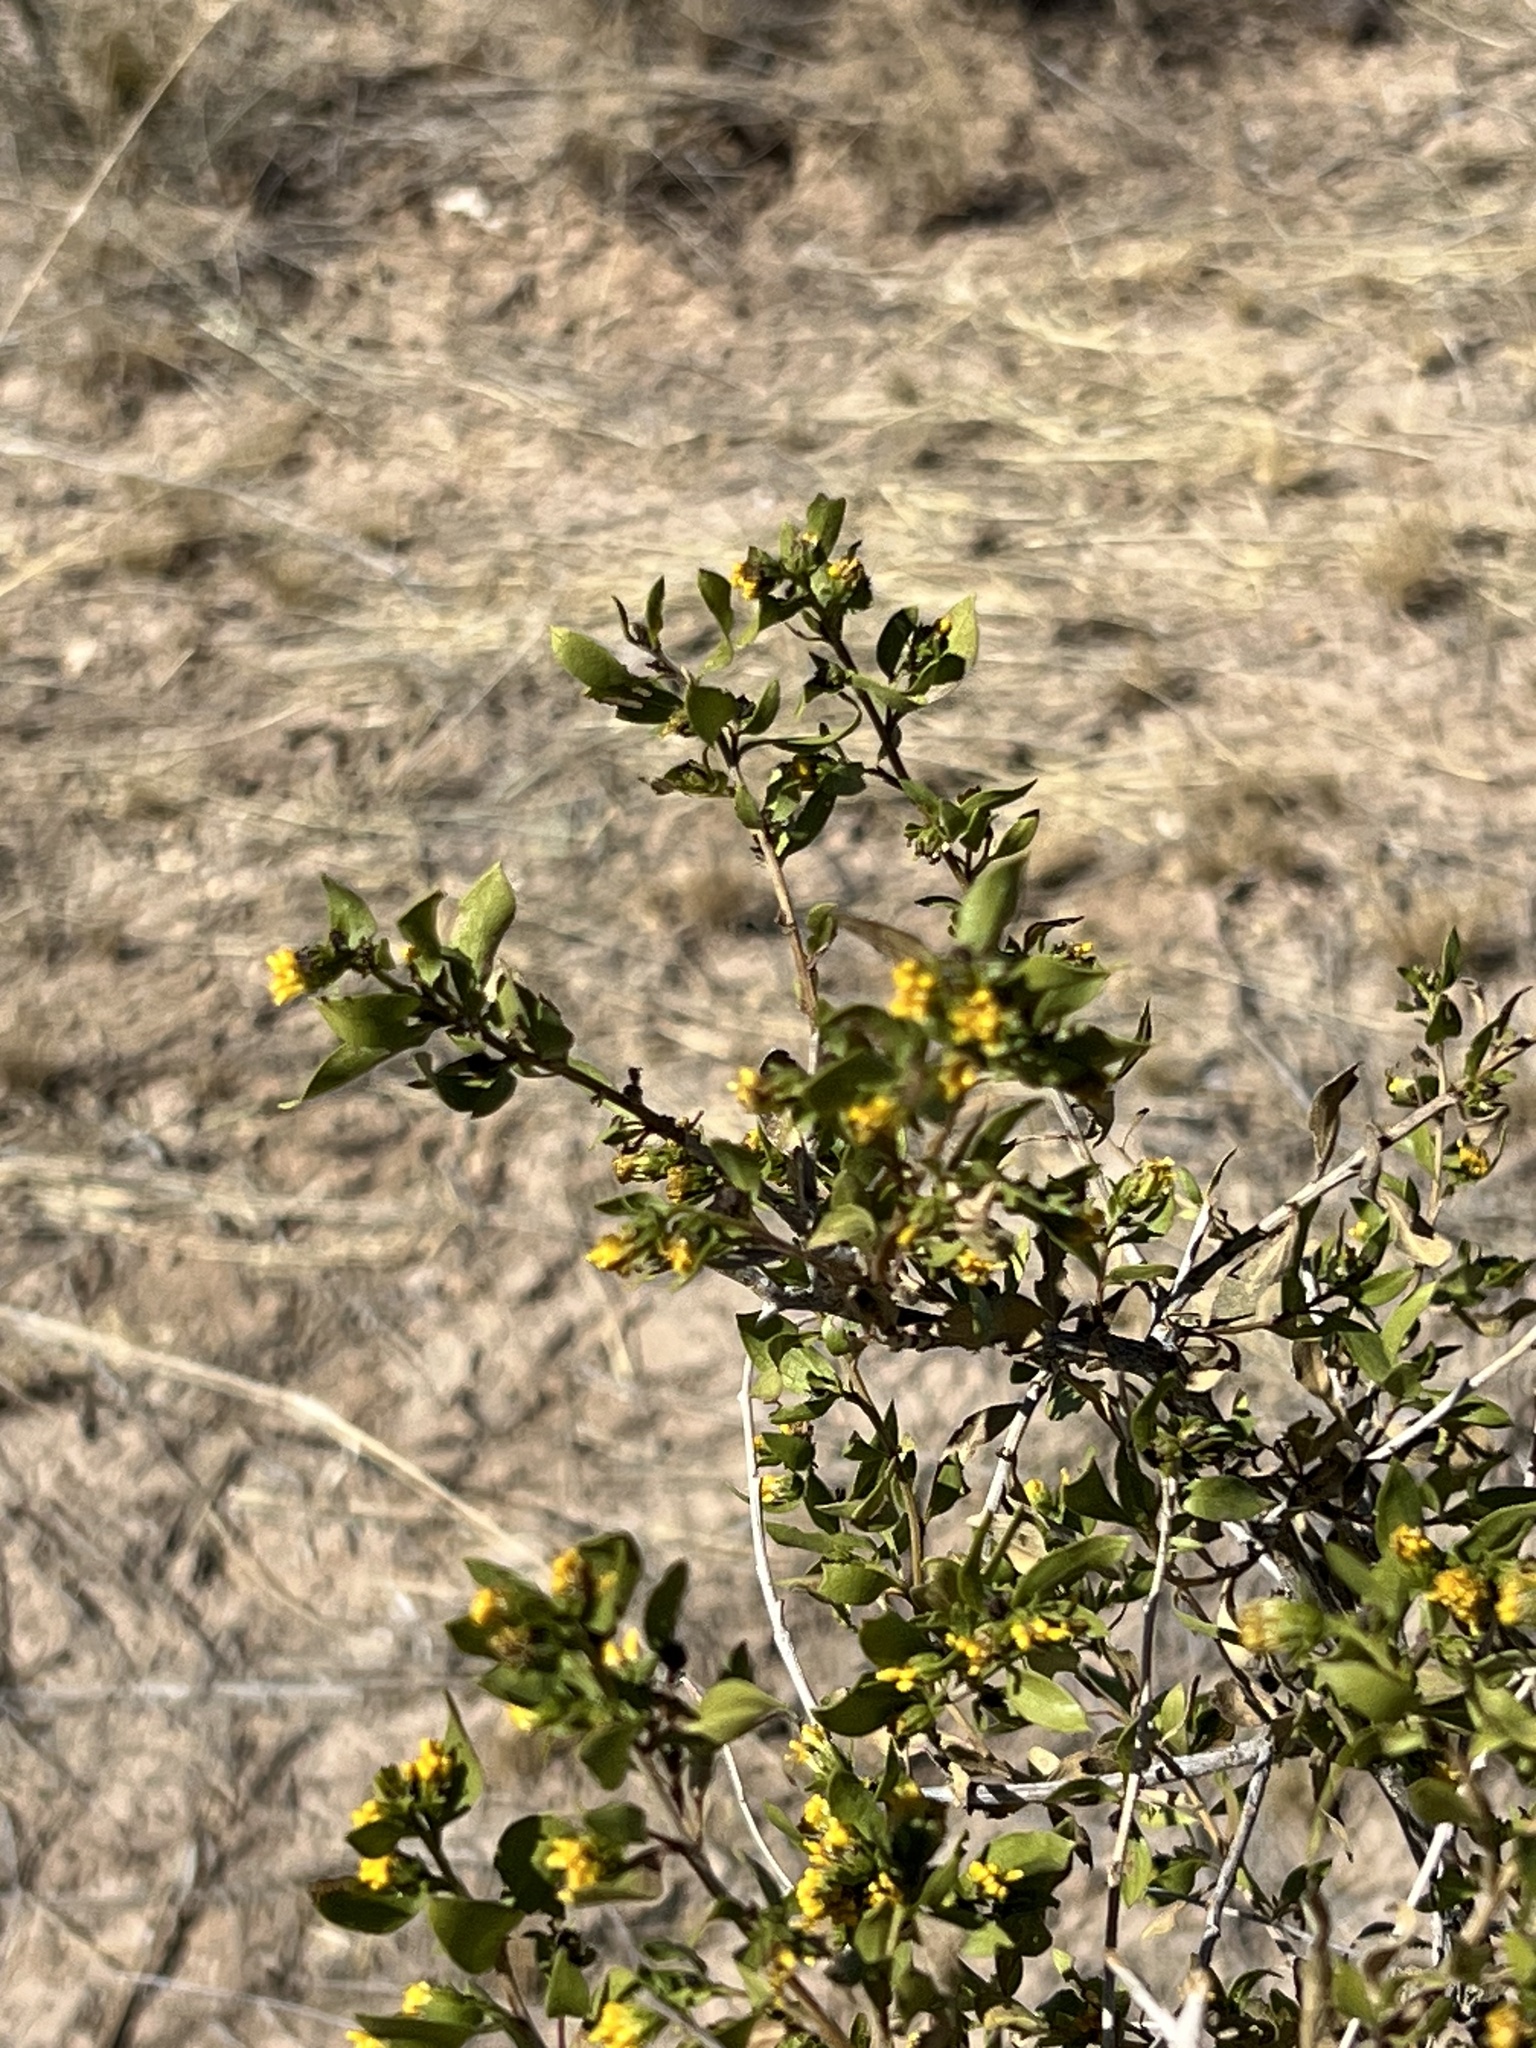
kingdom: Plantae
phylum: Tracheophyta
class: Magnoliopsida
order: Asterales
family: Asteraceae
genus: Flourensia
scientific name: Flourensia cernua
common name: Varnishbush
